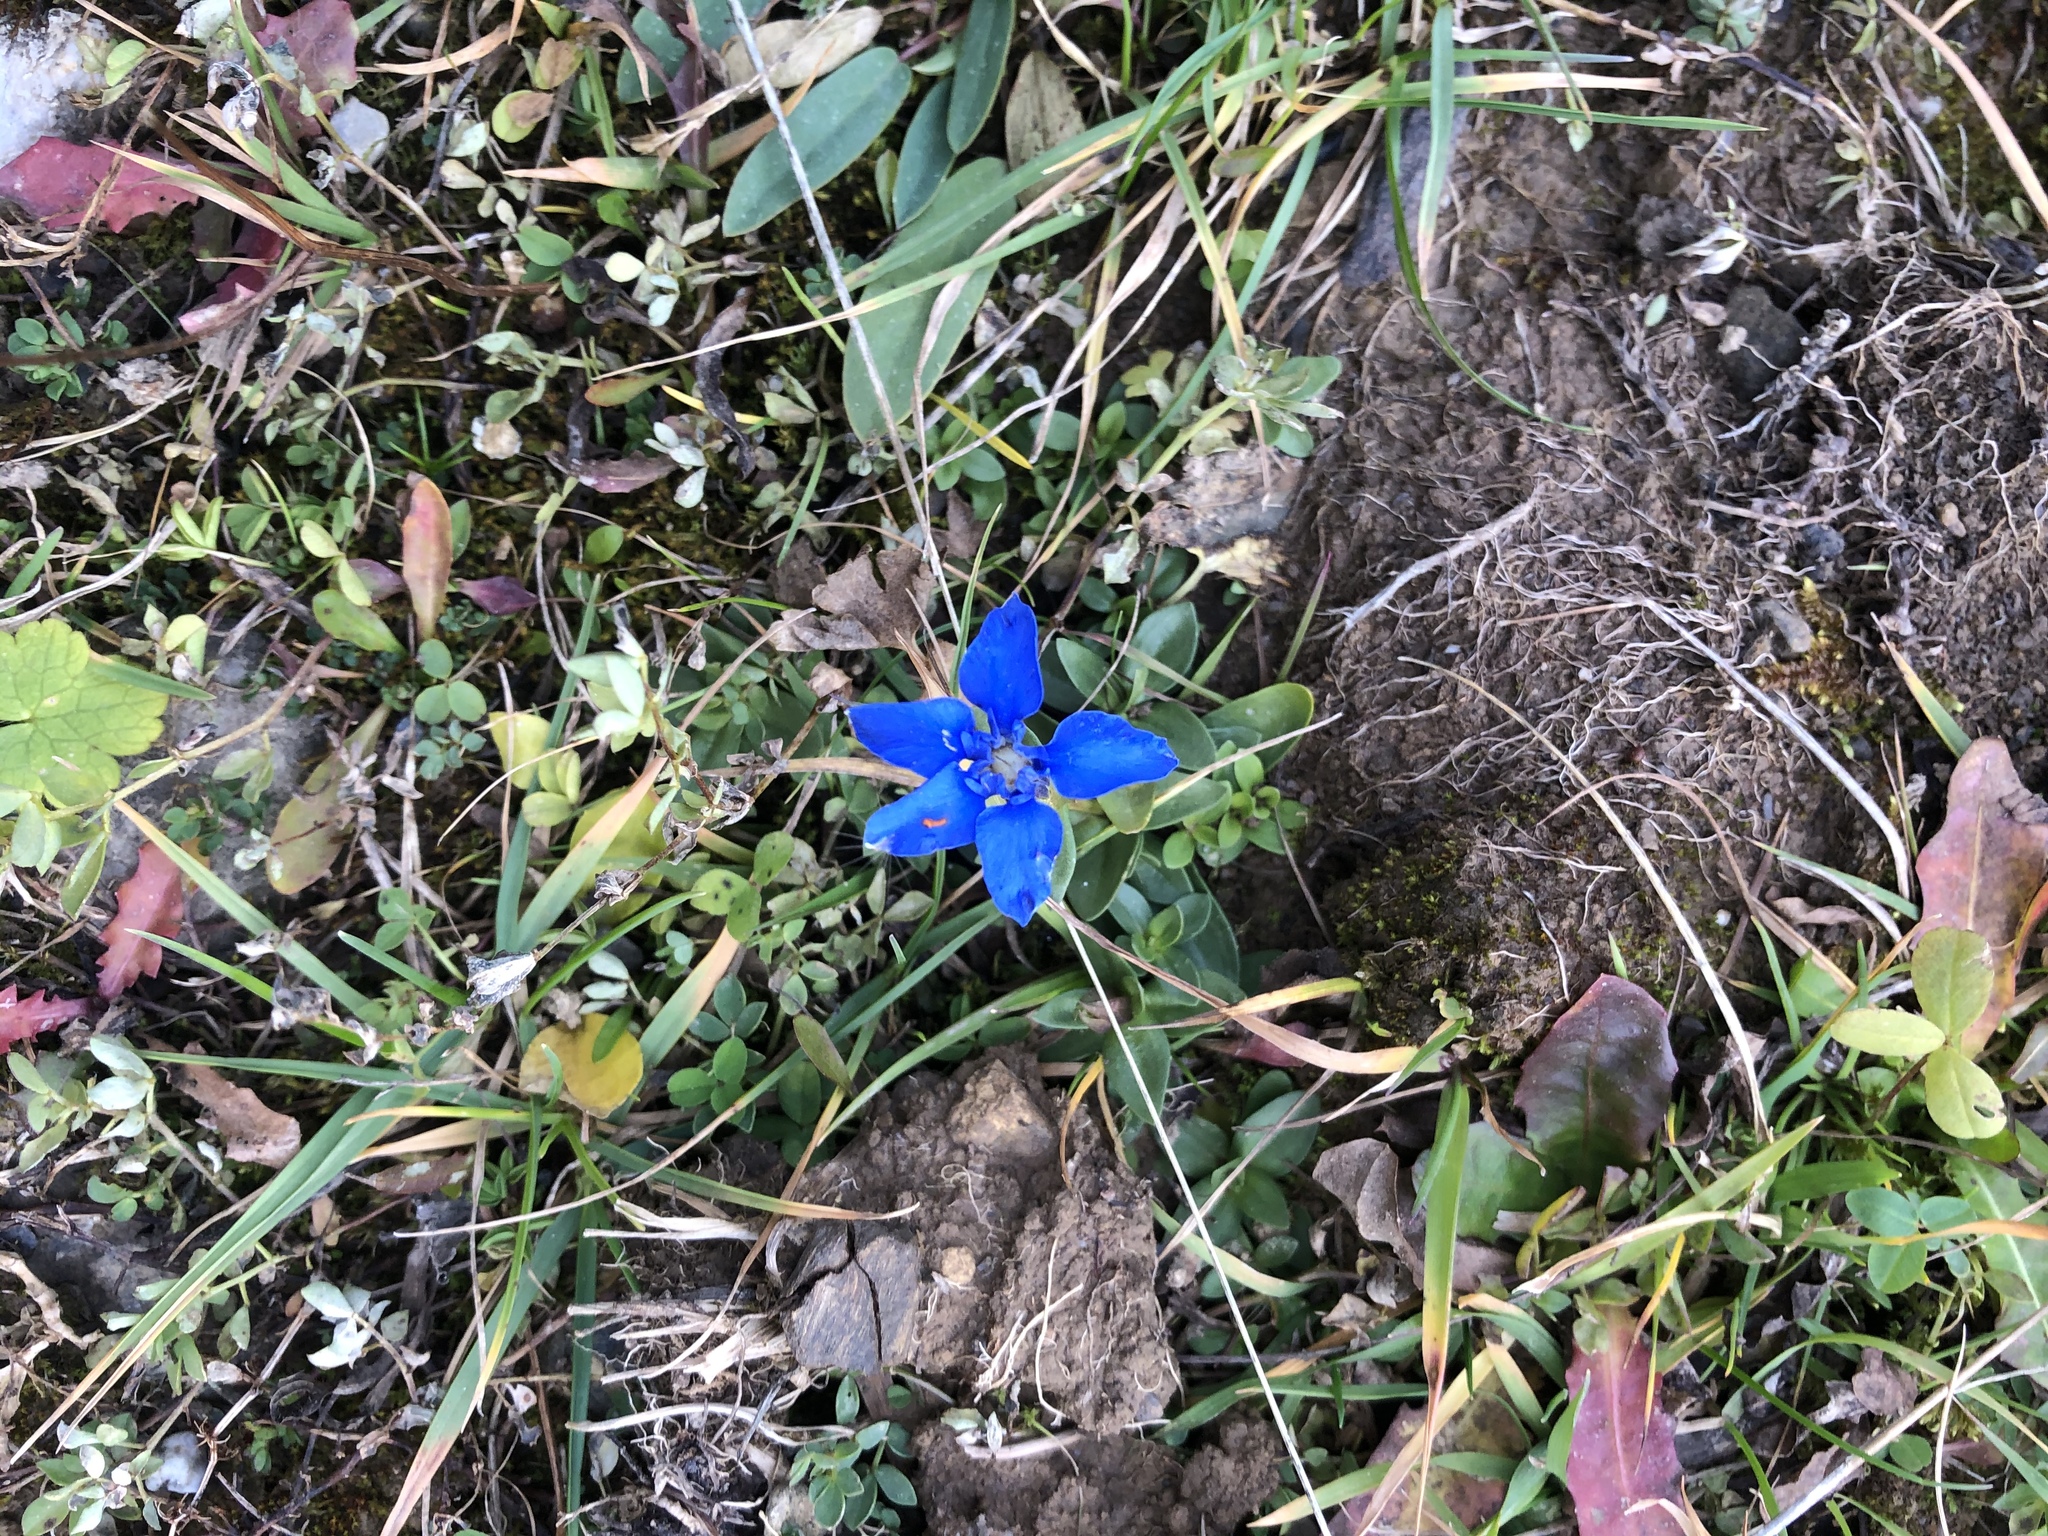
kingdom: Plantae
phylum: Tracheophyta
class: Magnoliopsida
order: Gentianales
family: Gentianaceae
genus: Gentiana
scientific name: Gentiana verna
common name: Spring gentian
